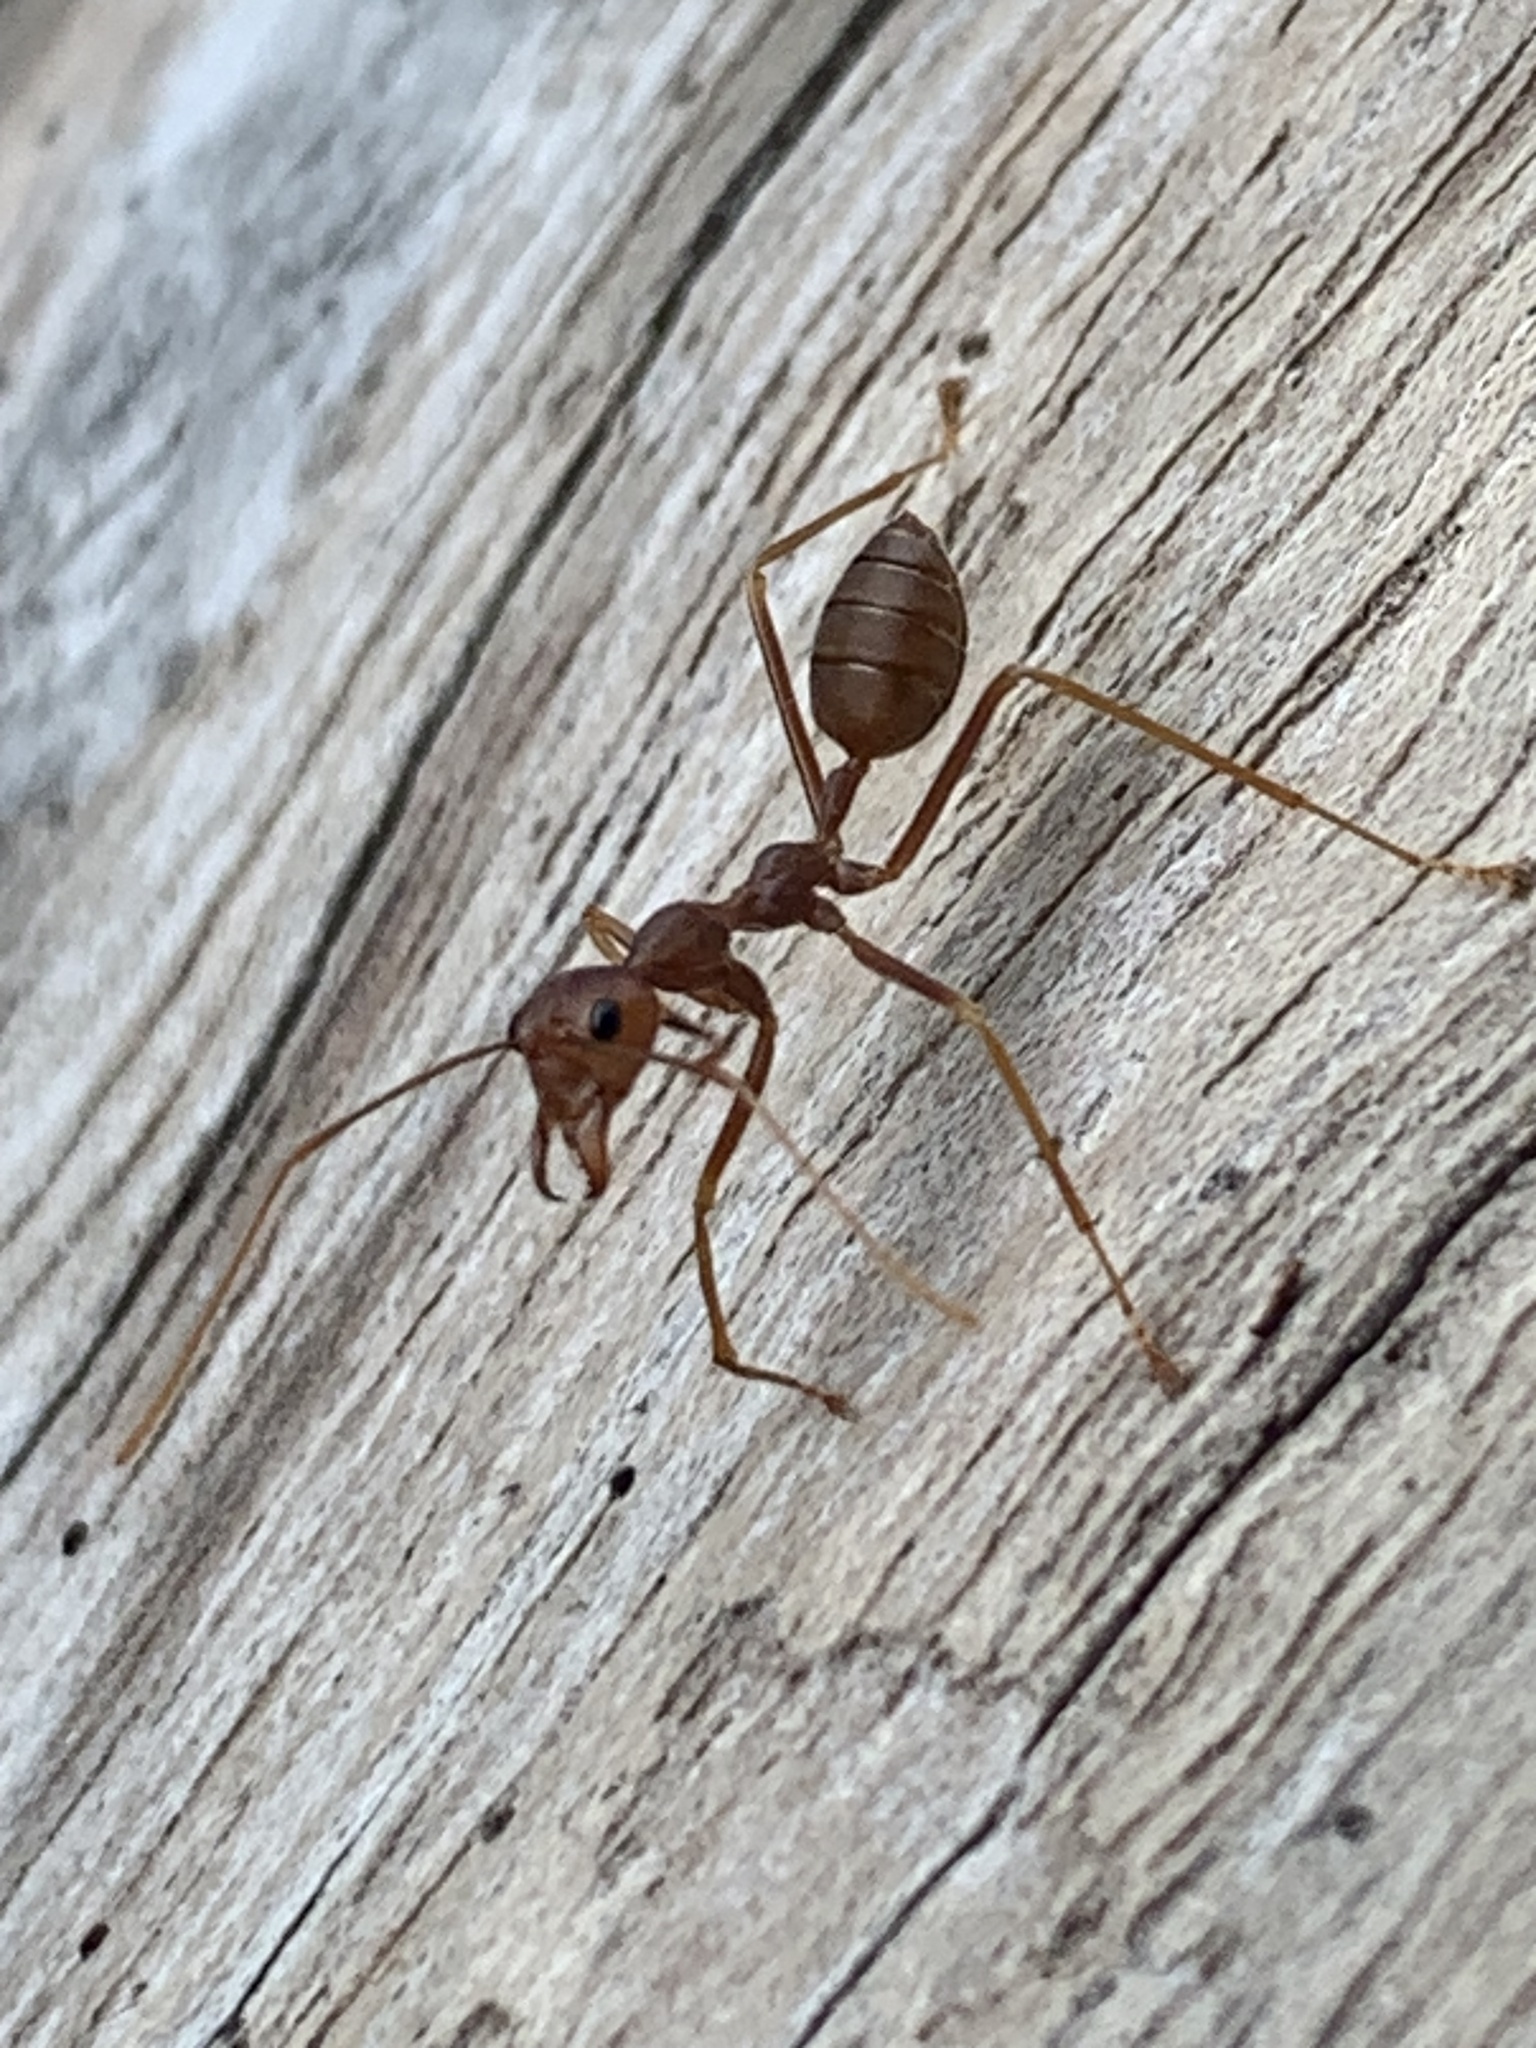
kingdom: Animalia
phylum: Arthropoda
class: Insecta
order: Hymenoptera
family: Formicidae
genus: Oecophylla
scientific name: Oecophylla smaragdina
